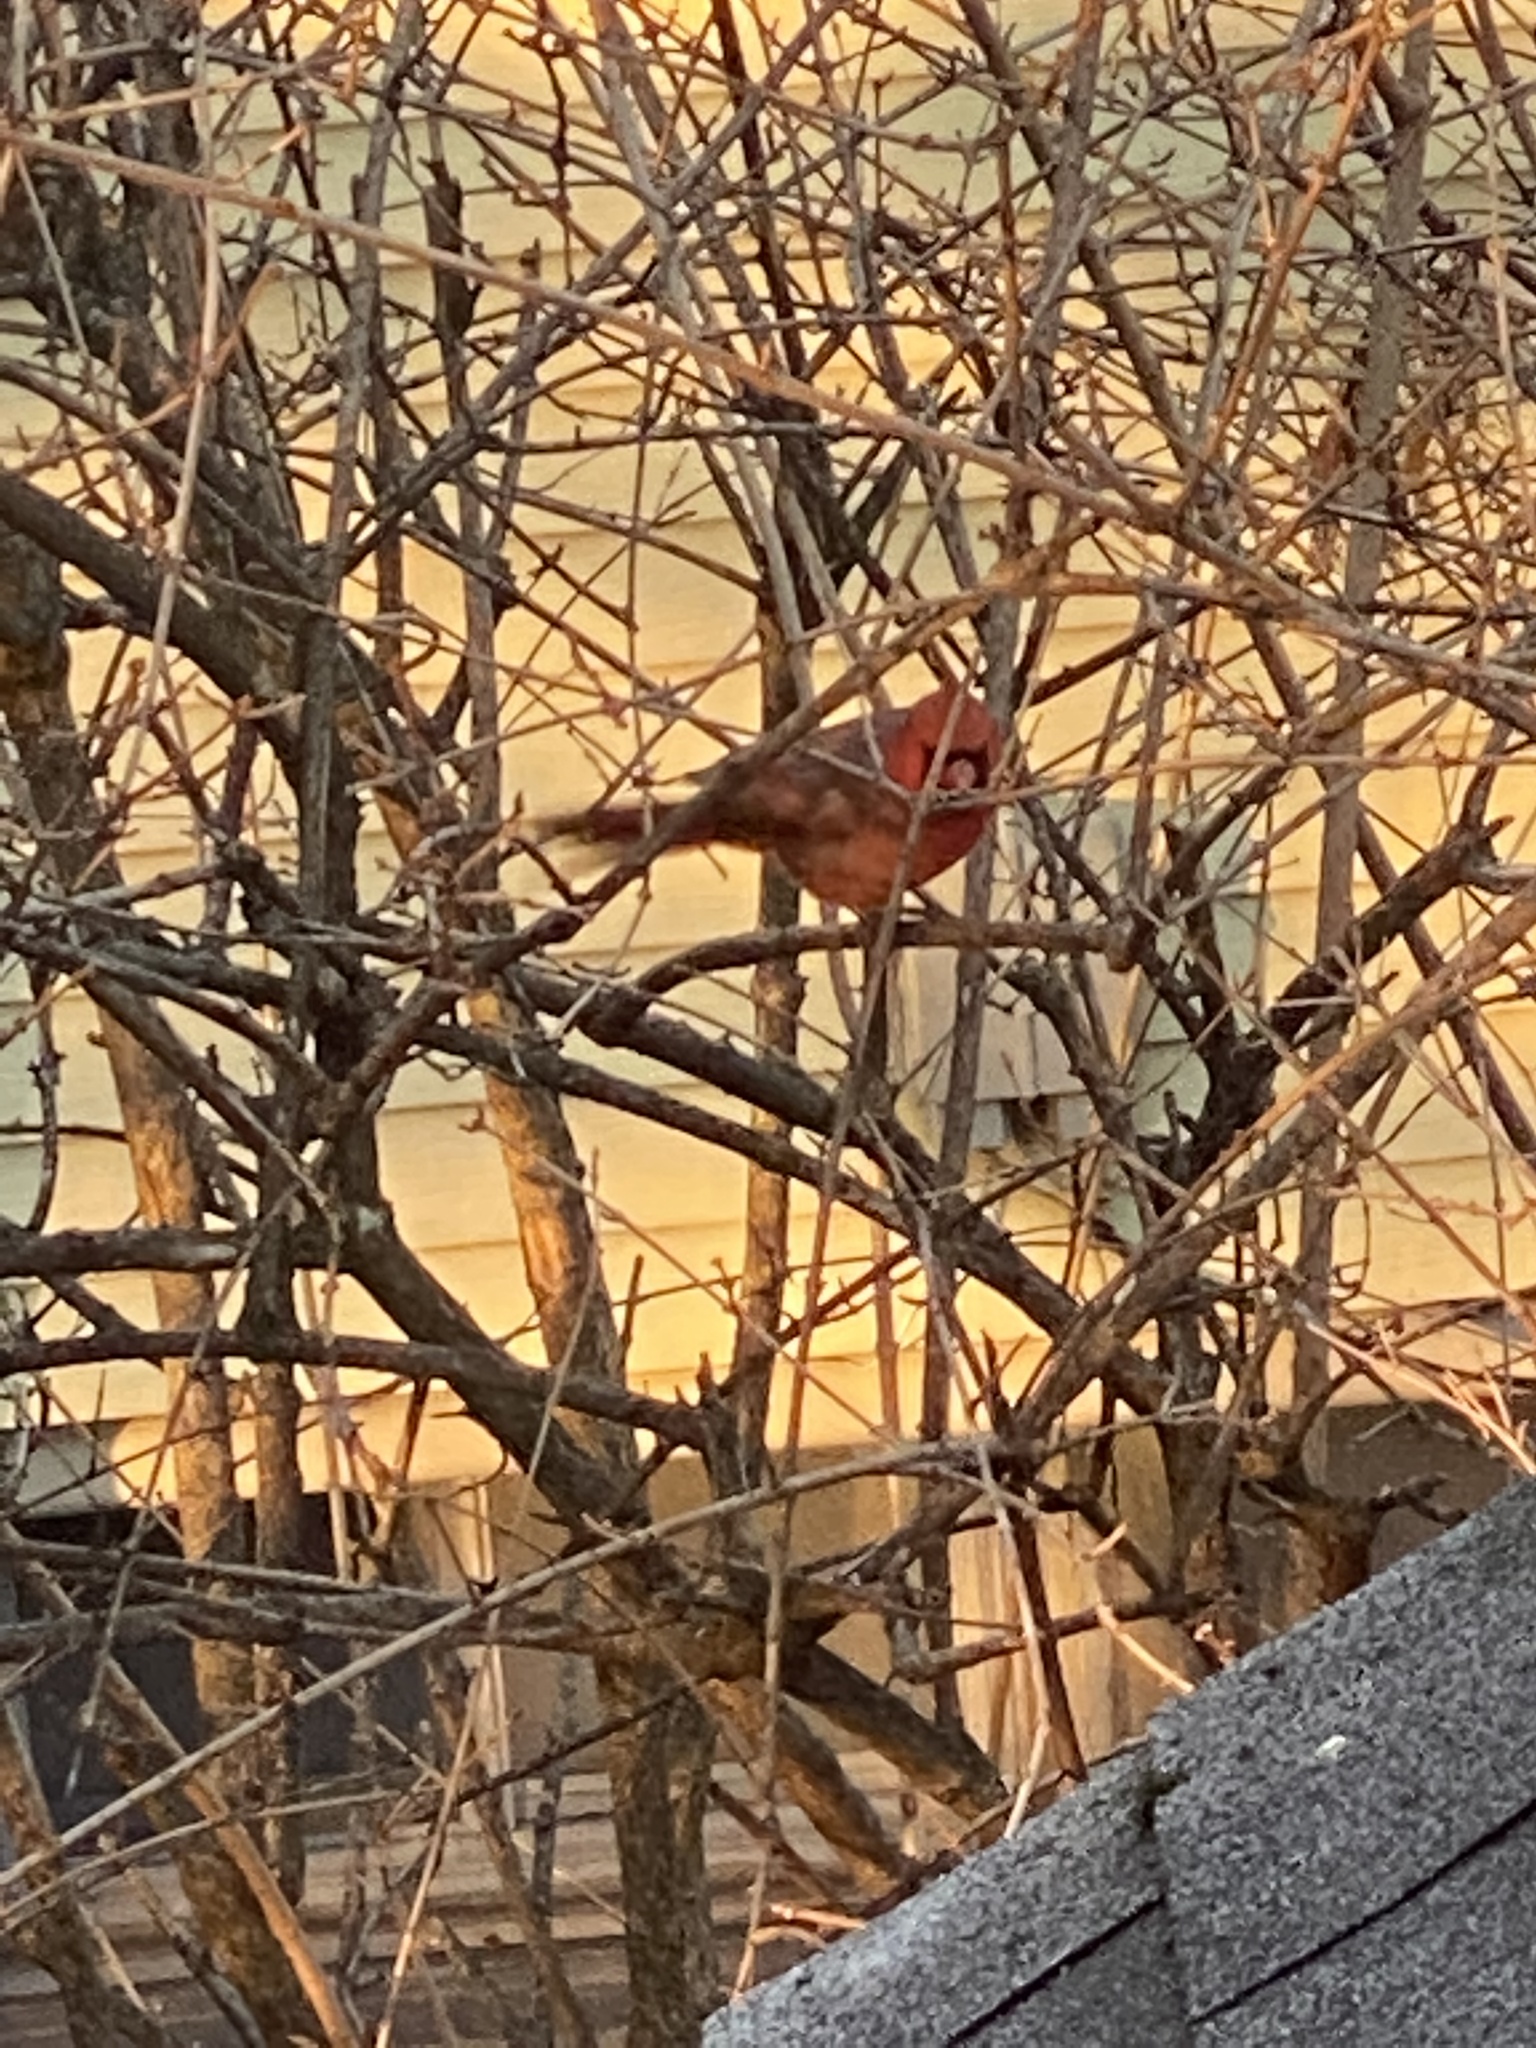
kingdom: Animalia
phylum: Chordata
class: Aves
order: Passeriformes
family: Cardinalidae
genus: Cardinalis
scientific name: Cardinalis cardinalis
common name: Northern cardinal
